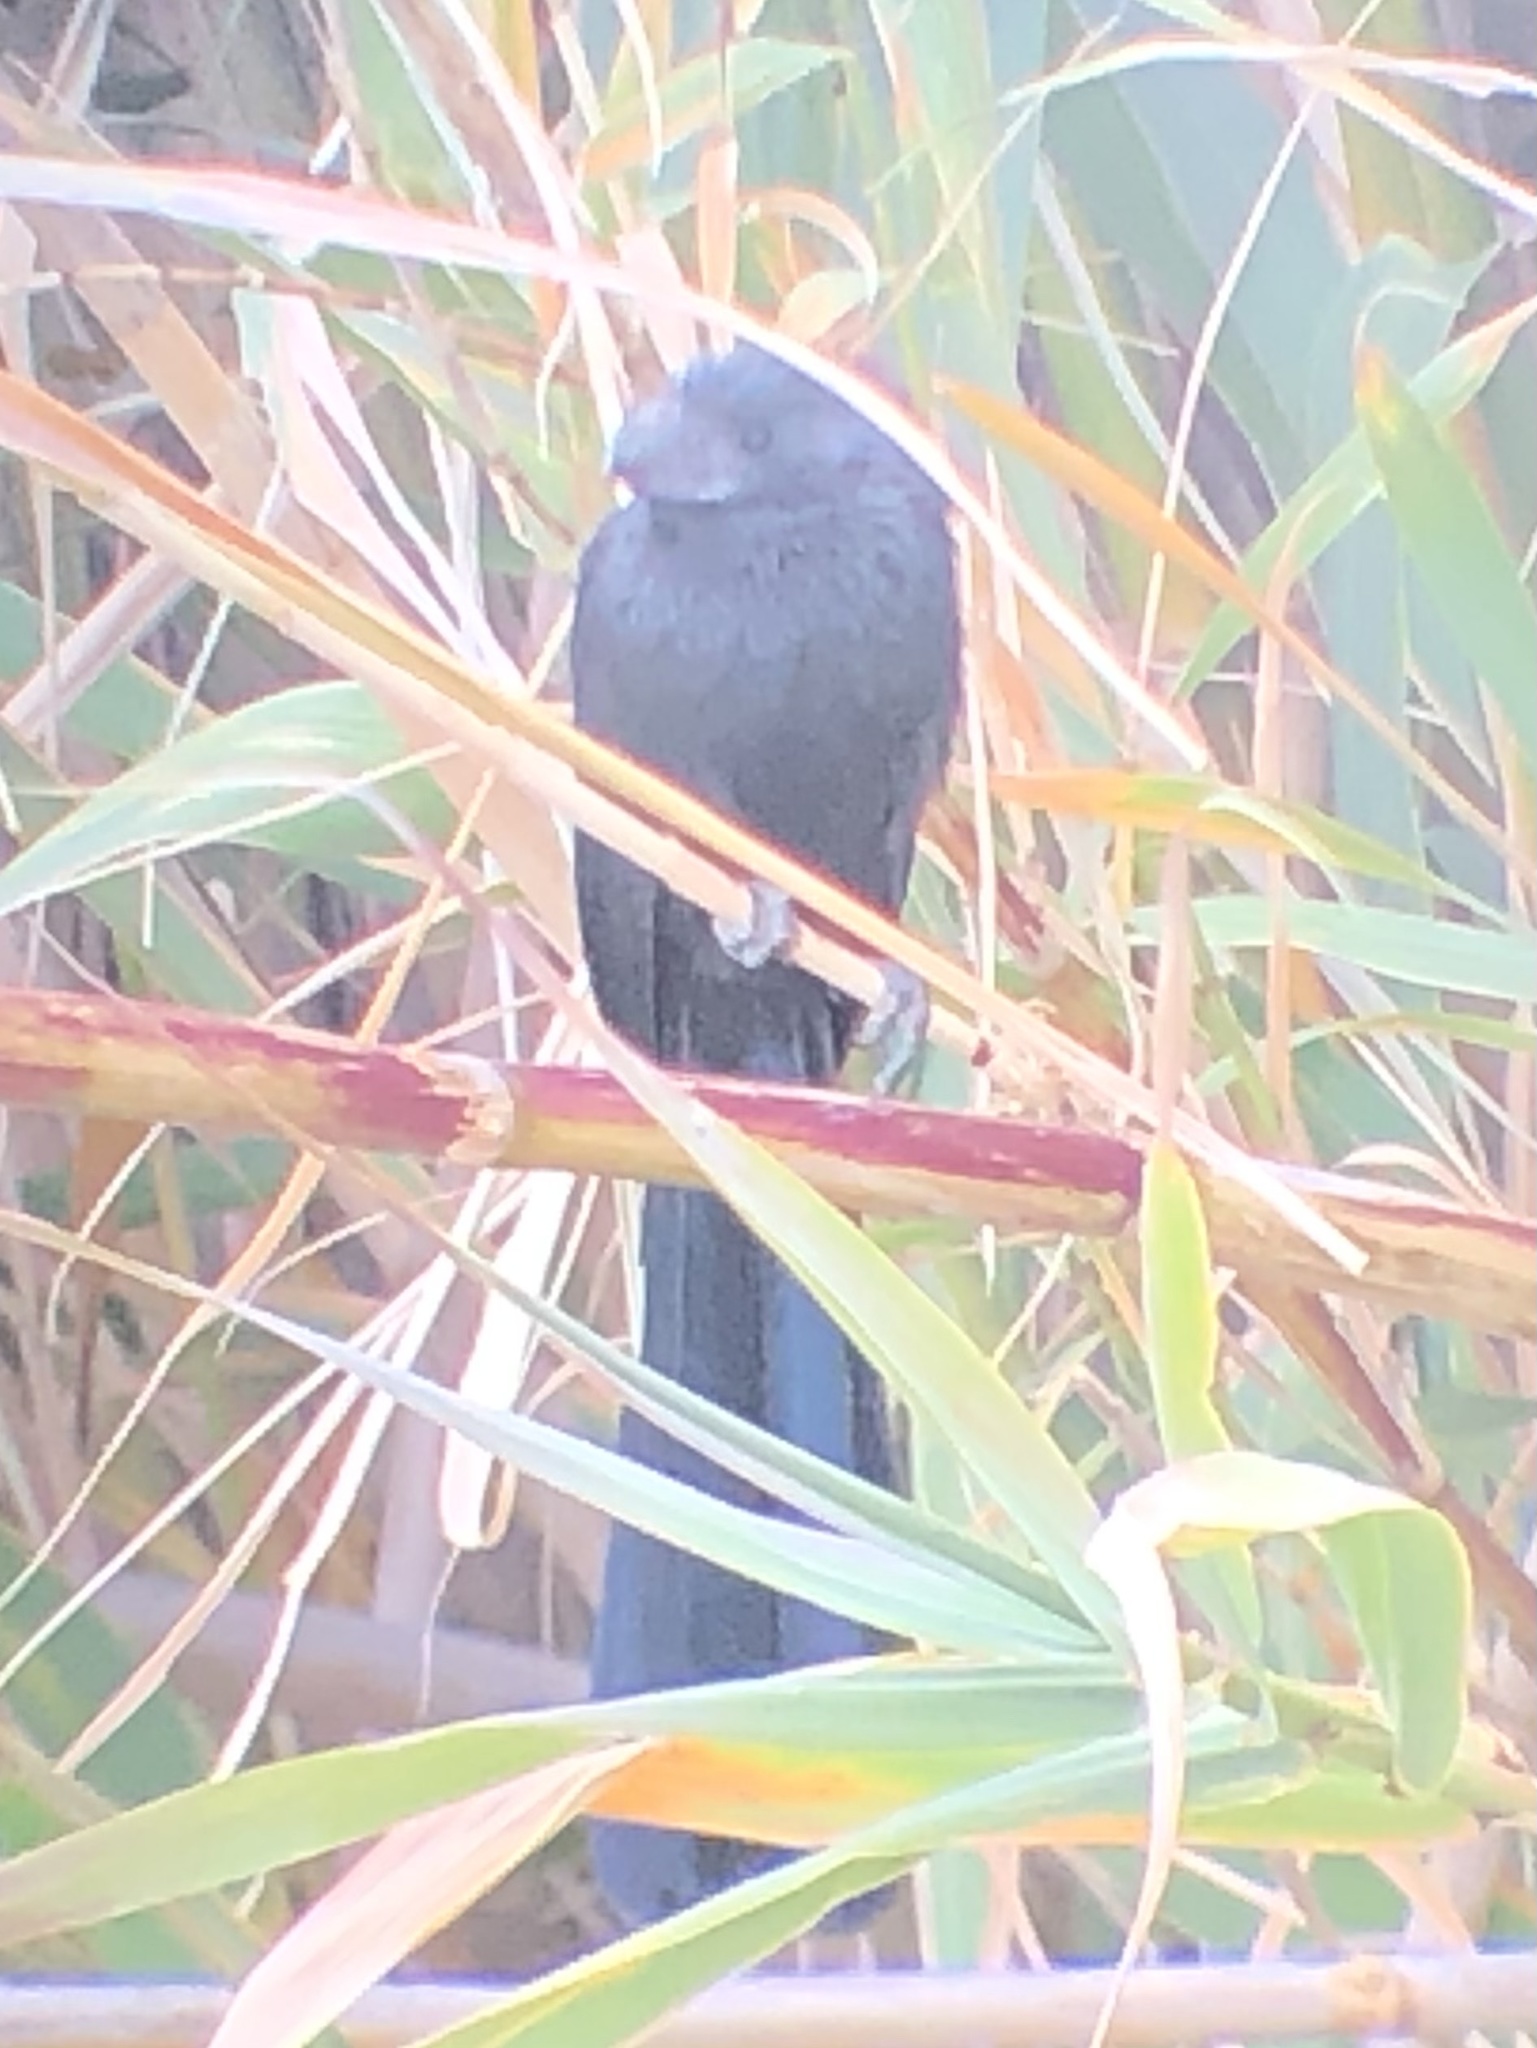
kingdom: Animalia
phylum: Chordata
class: Aves
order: Cuculiformes
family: Cuculidae
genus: Crotophaga
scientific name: Crotophaga sulcirostris
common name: Groove-billed ani
